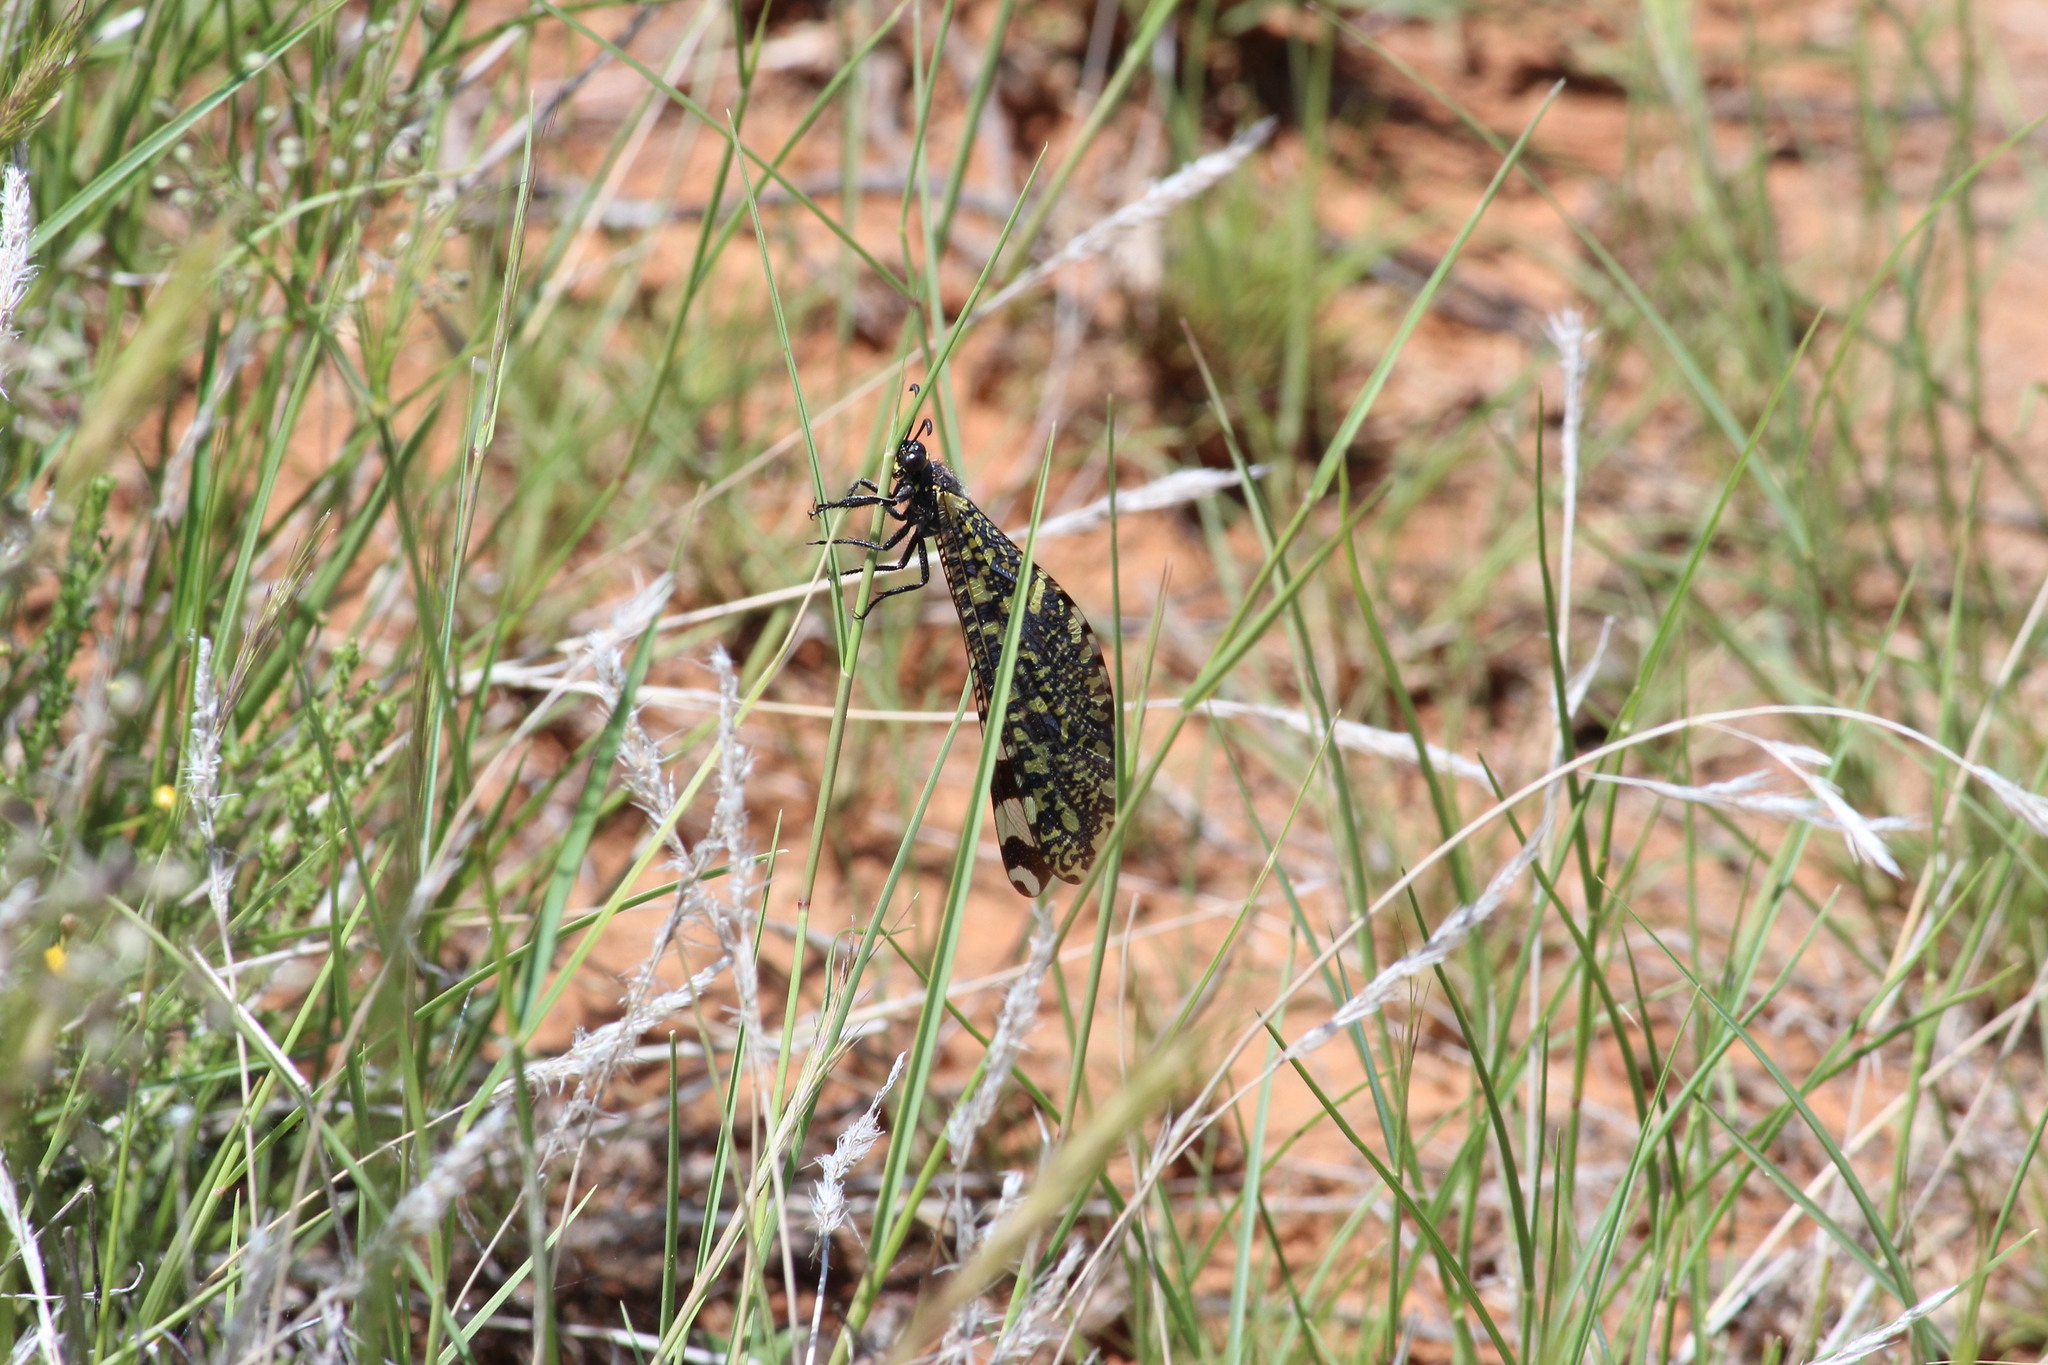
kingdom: Animalia
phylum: Arthropoda
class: Insecta
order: Neuroptera
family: Myrmeleontidae
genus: Palparellus
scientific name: Palparellus pulchellus
